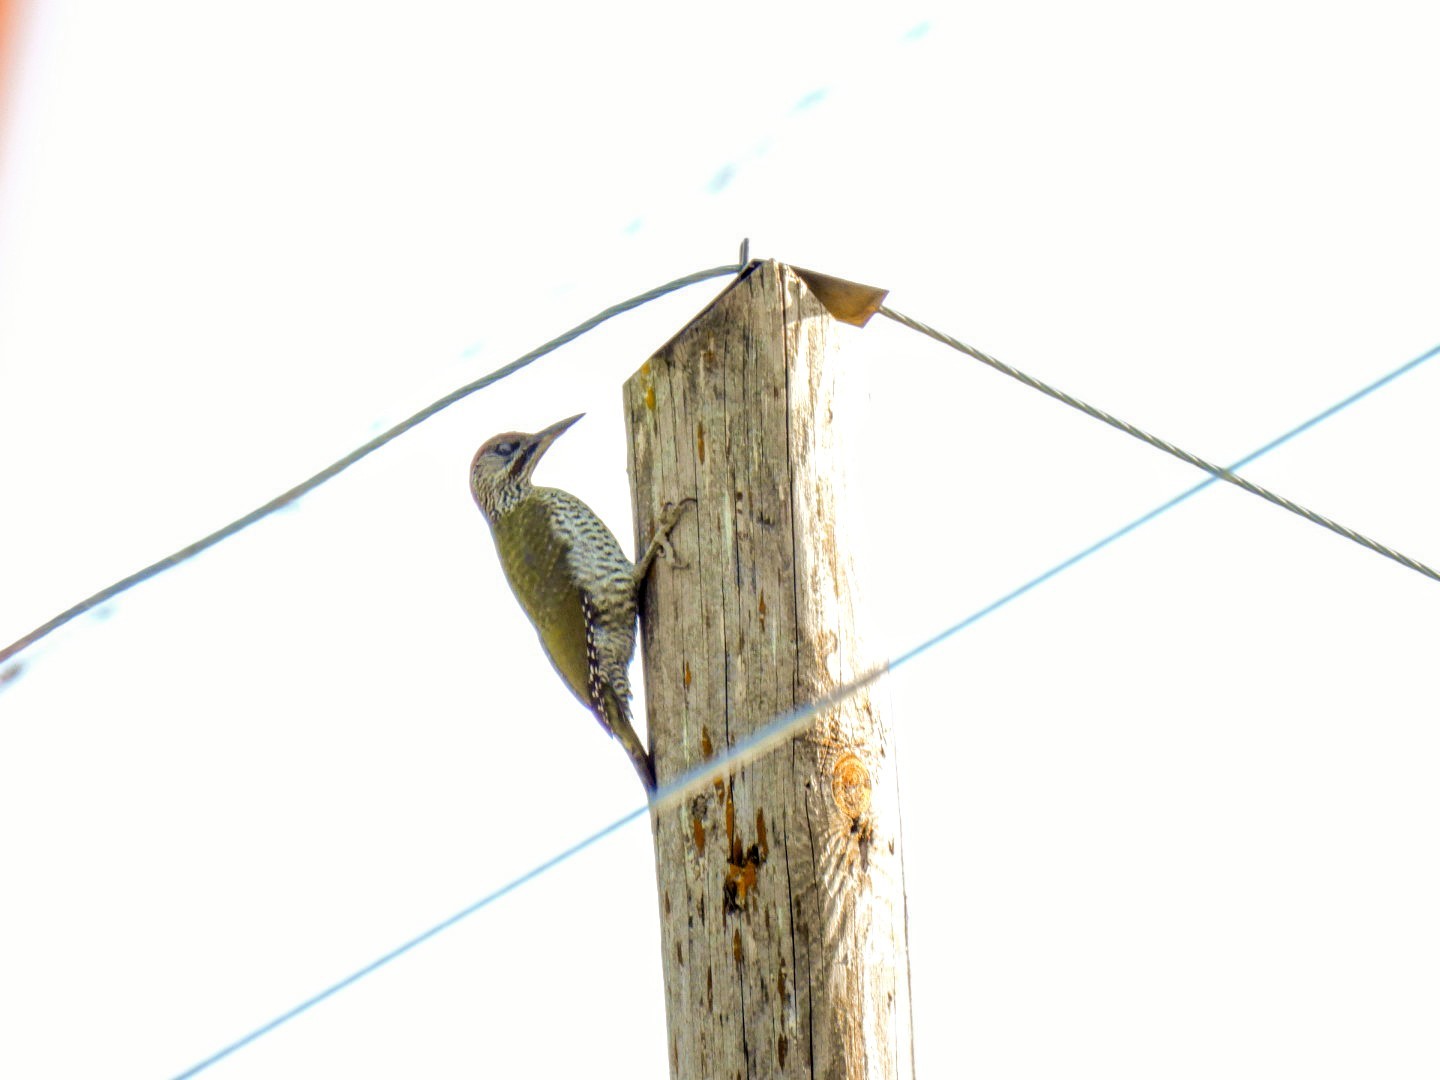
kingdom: Animalia
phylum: Chordata
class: Aves
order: Piciformes
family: Picidae
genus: Picus
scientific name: Picus viridis
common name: European green woodpecker
